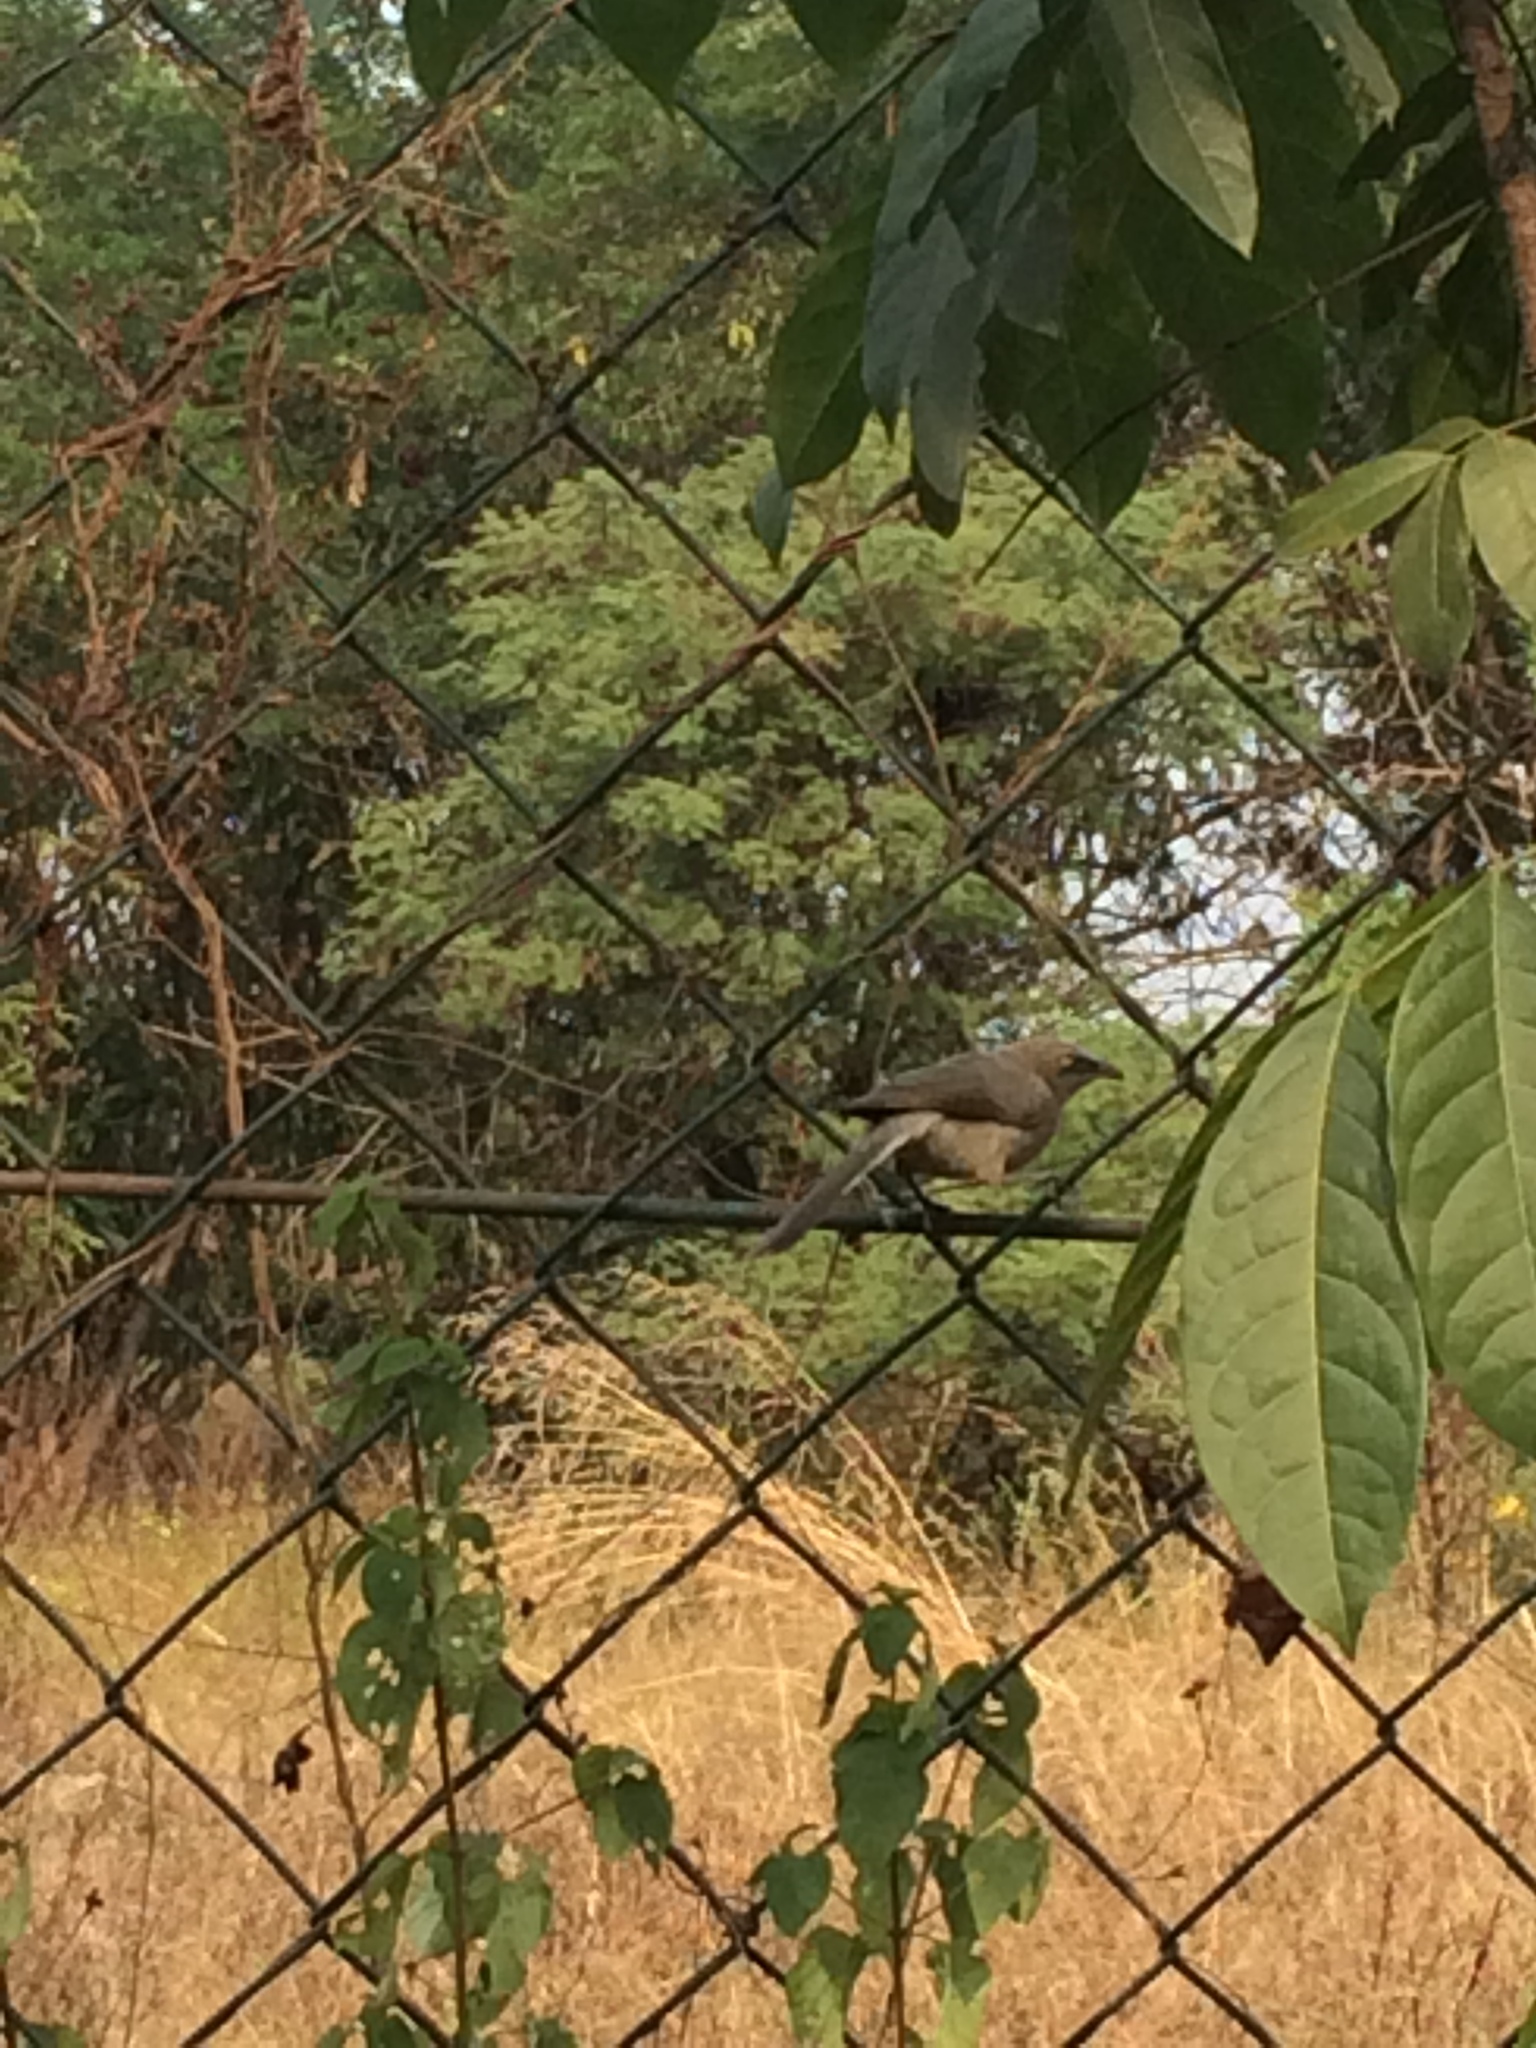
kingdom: Animalia
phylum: Chordata
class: Aves
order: Passeriformes
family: Leiothrichidae
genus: Turdoides
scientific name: Turdoides malcolmi
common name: Large grey babbler
